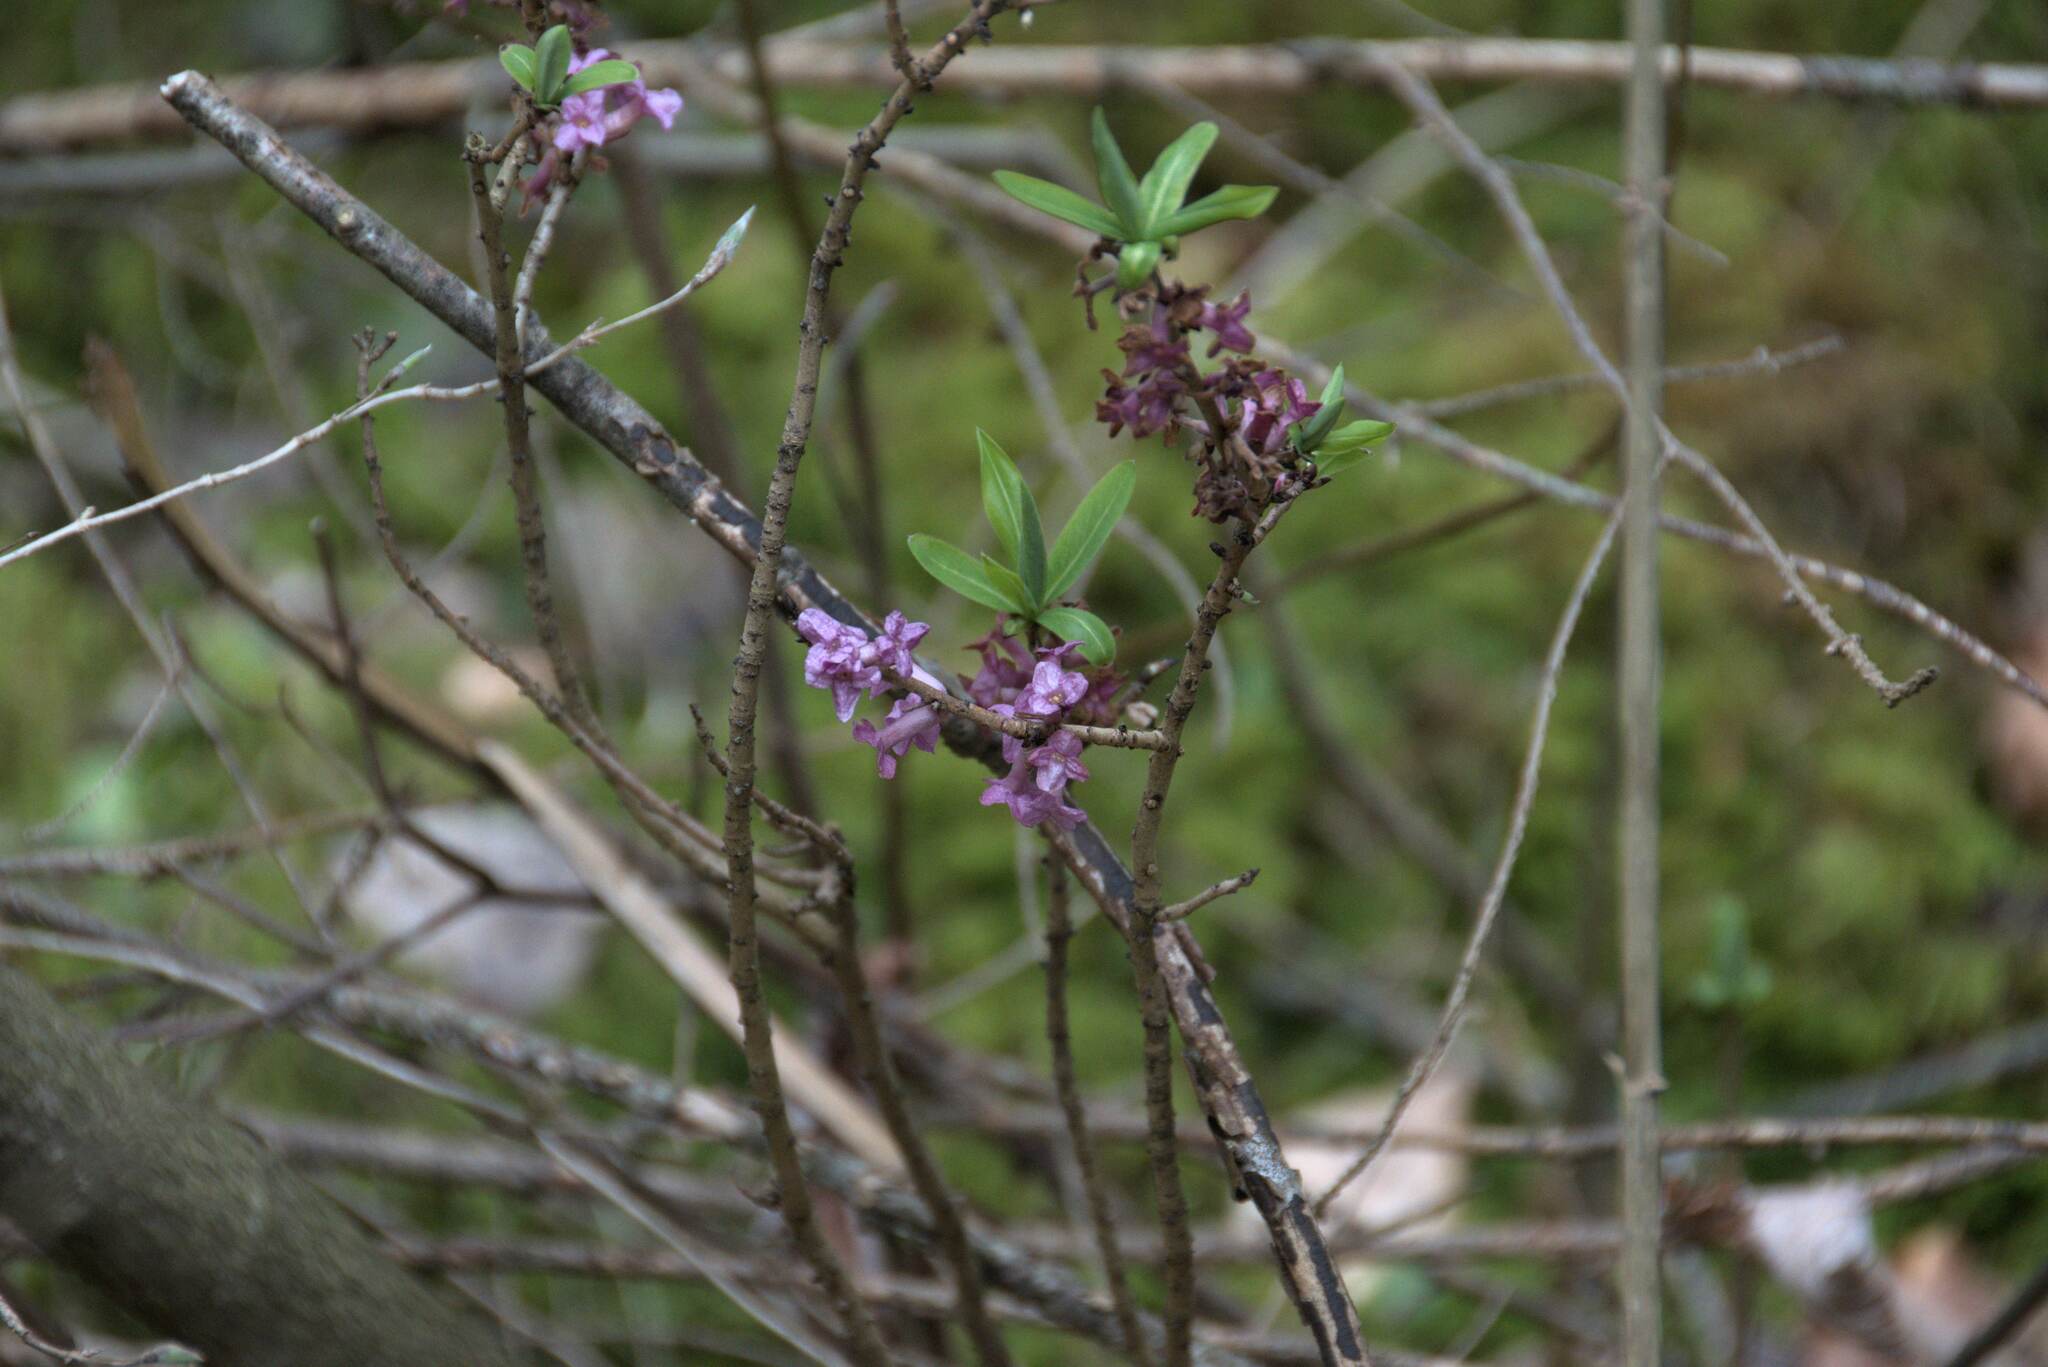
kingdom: Plantae
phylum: Tracheophyta
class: Magnoliopsida
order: Malvales
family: Thymelaeaceae
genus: Daphne
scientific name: Daphne mezereum
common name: Mezereon
